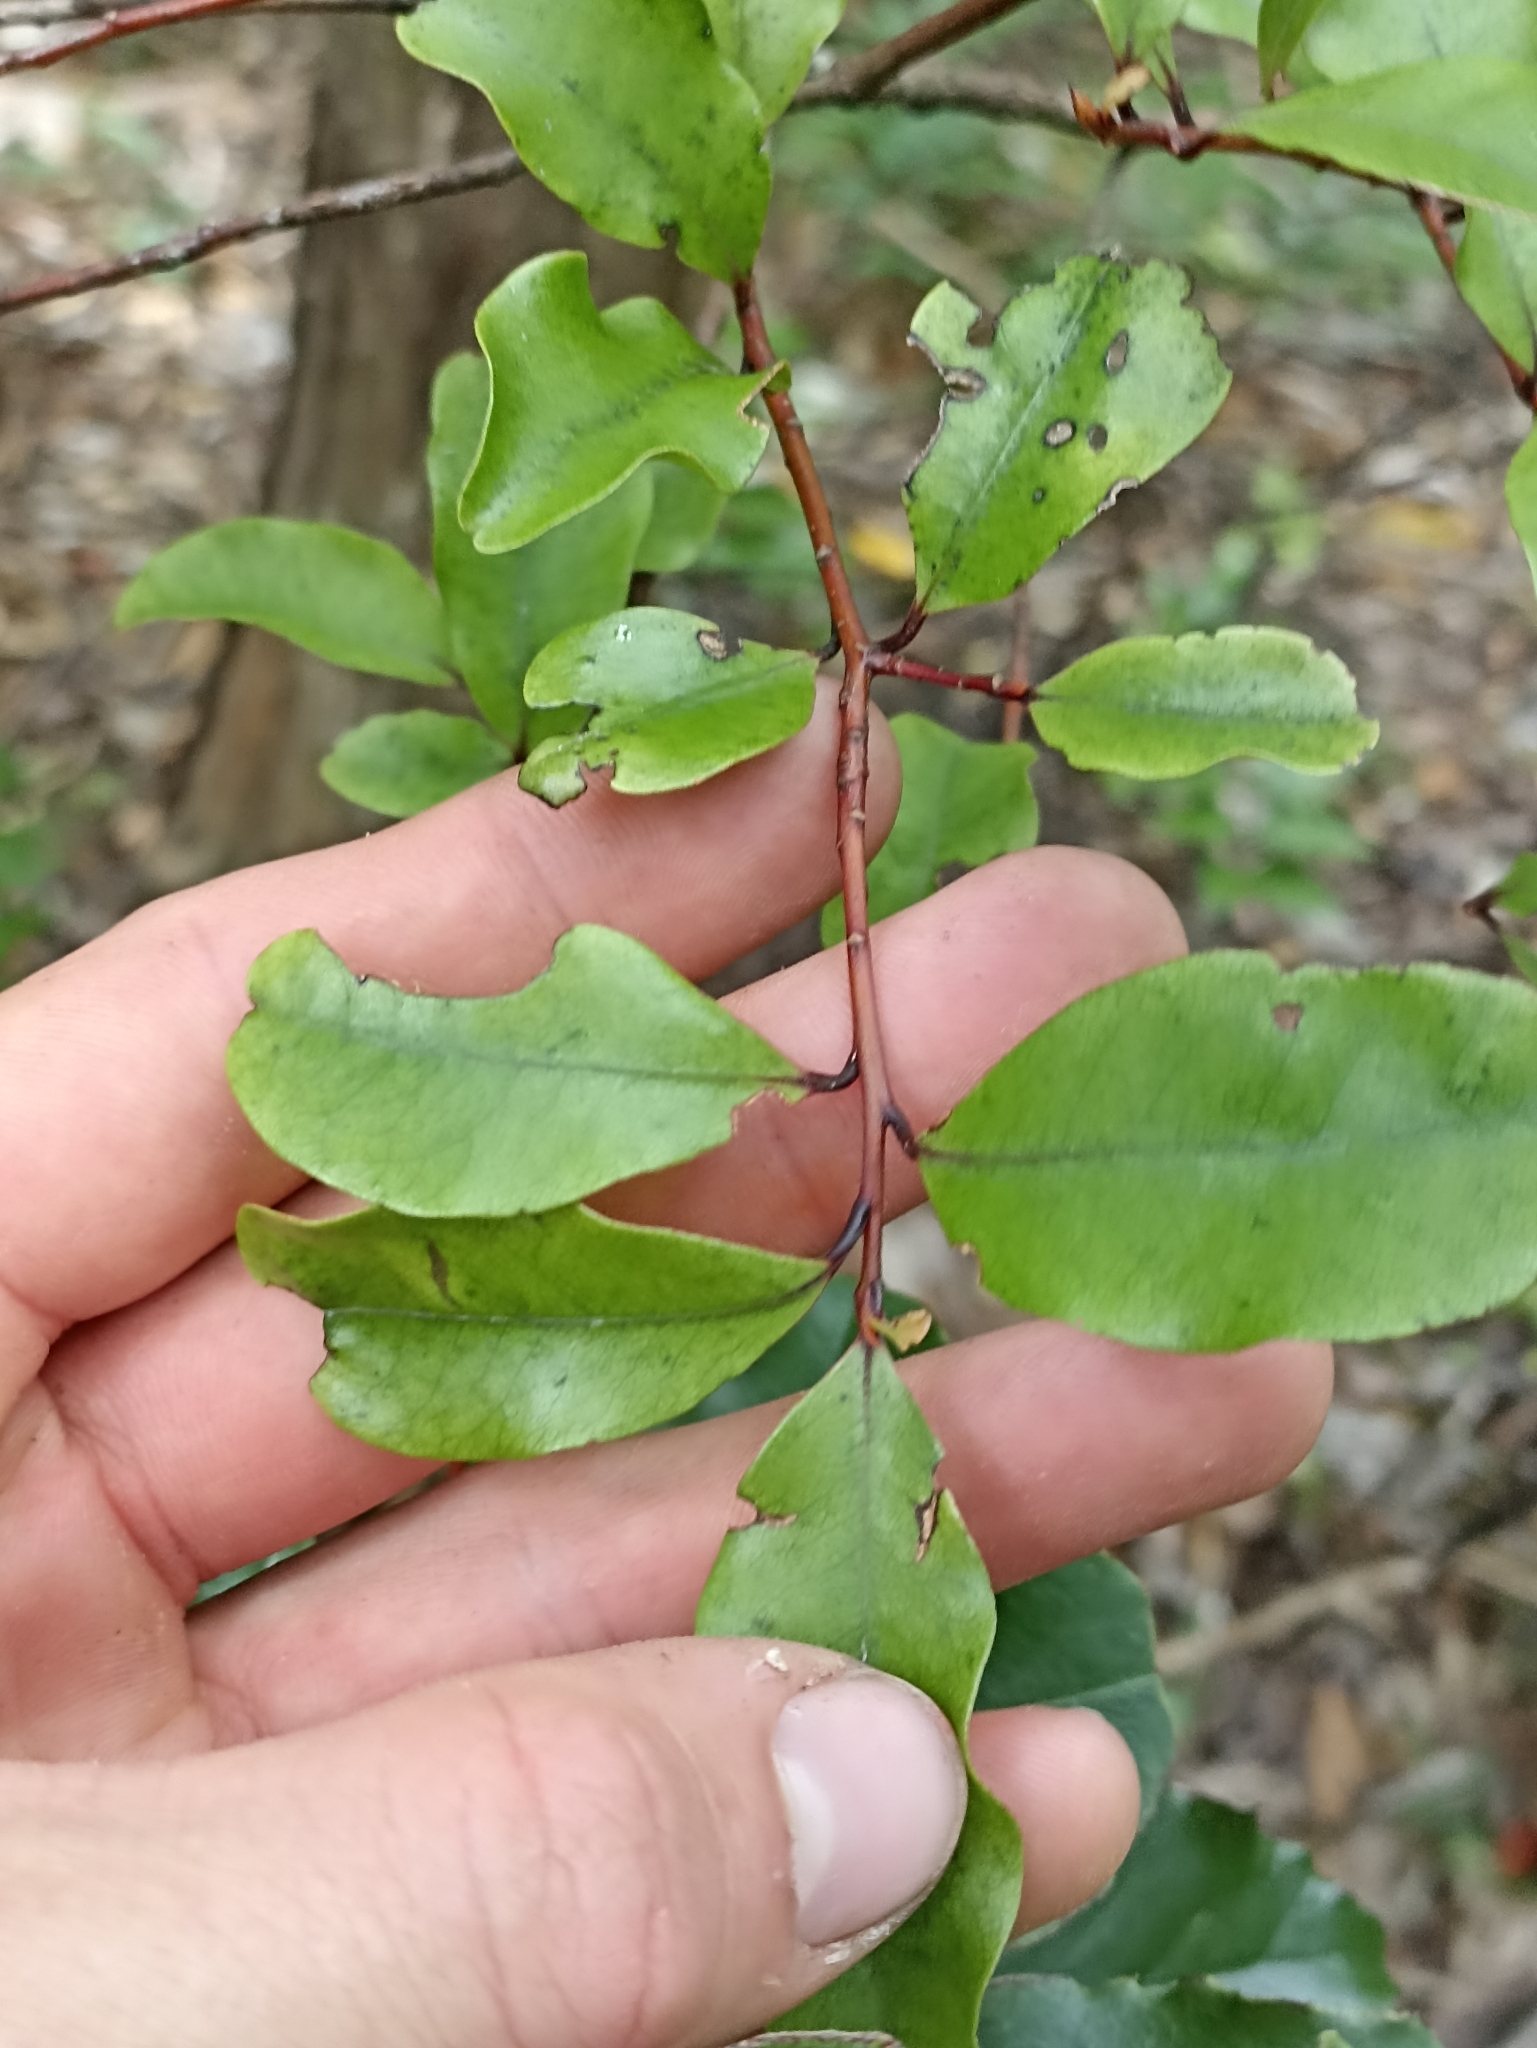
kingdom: Plantae
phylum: Tracheophyta
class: Magnoliopsida
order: Ericales
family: Primulaceae
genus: Myrsine
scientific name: Myrsine australis
